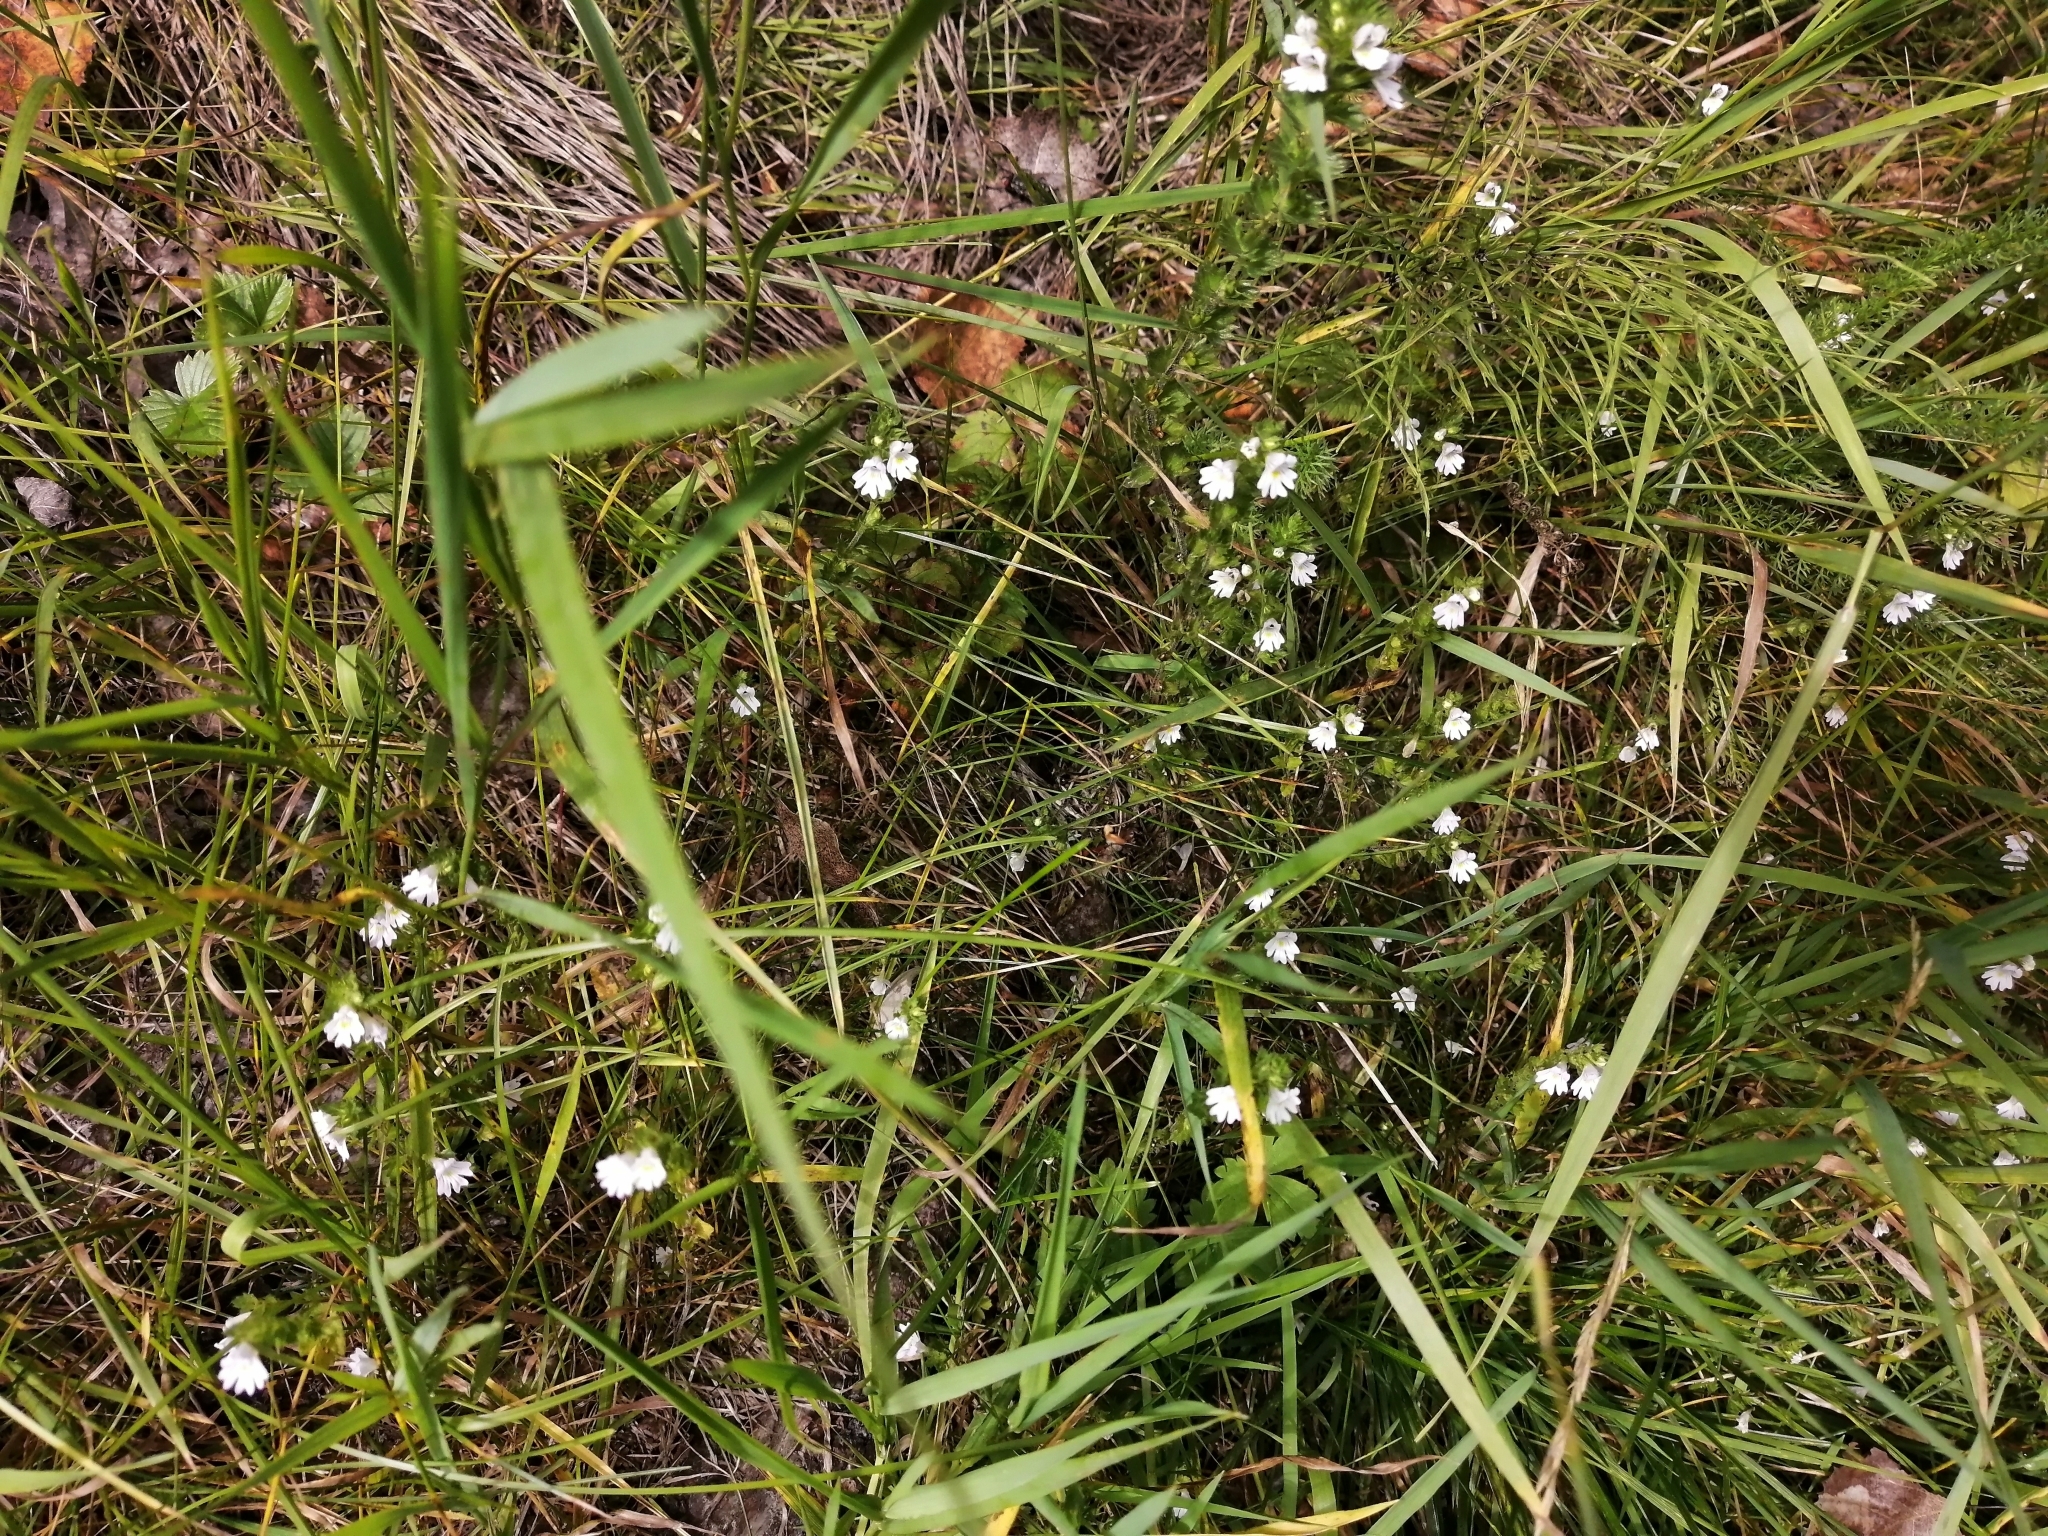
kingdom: Plantae
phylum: Tracheophyta
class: Magnoliopsida
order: Lamiales
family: Orobanchaceae
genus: Euphrasia
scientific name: Euphrasia
